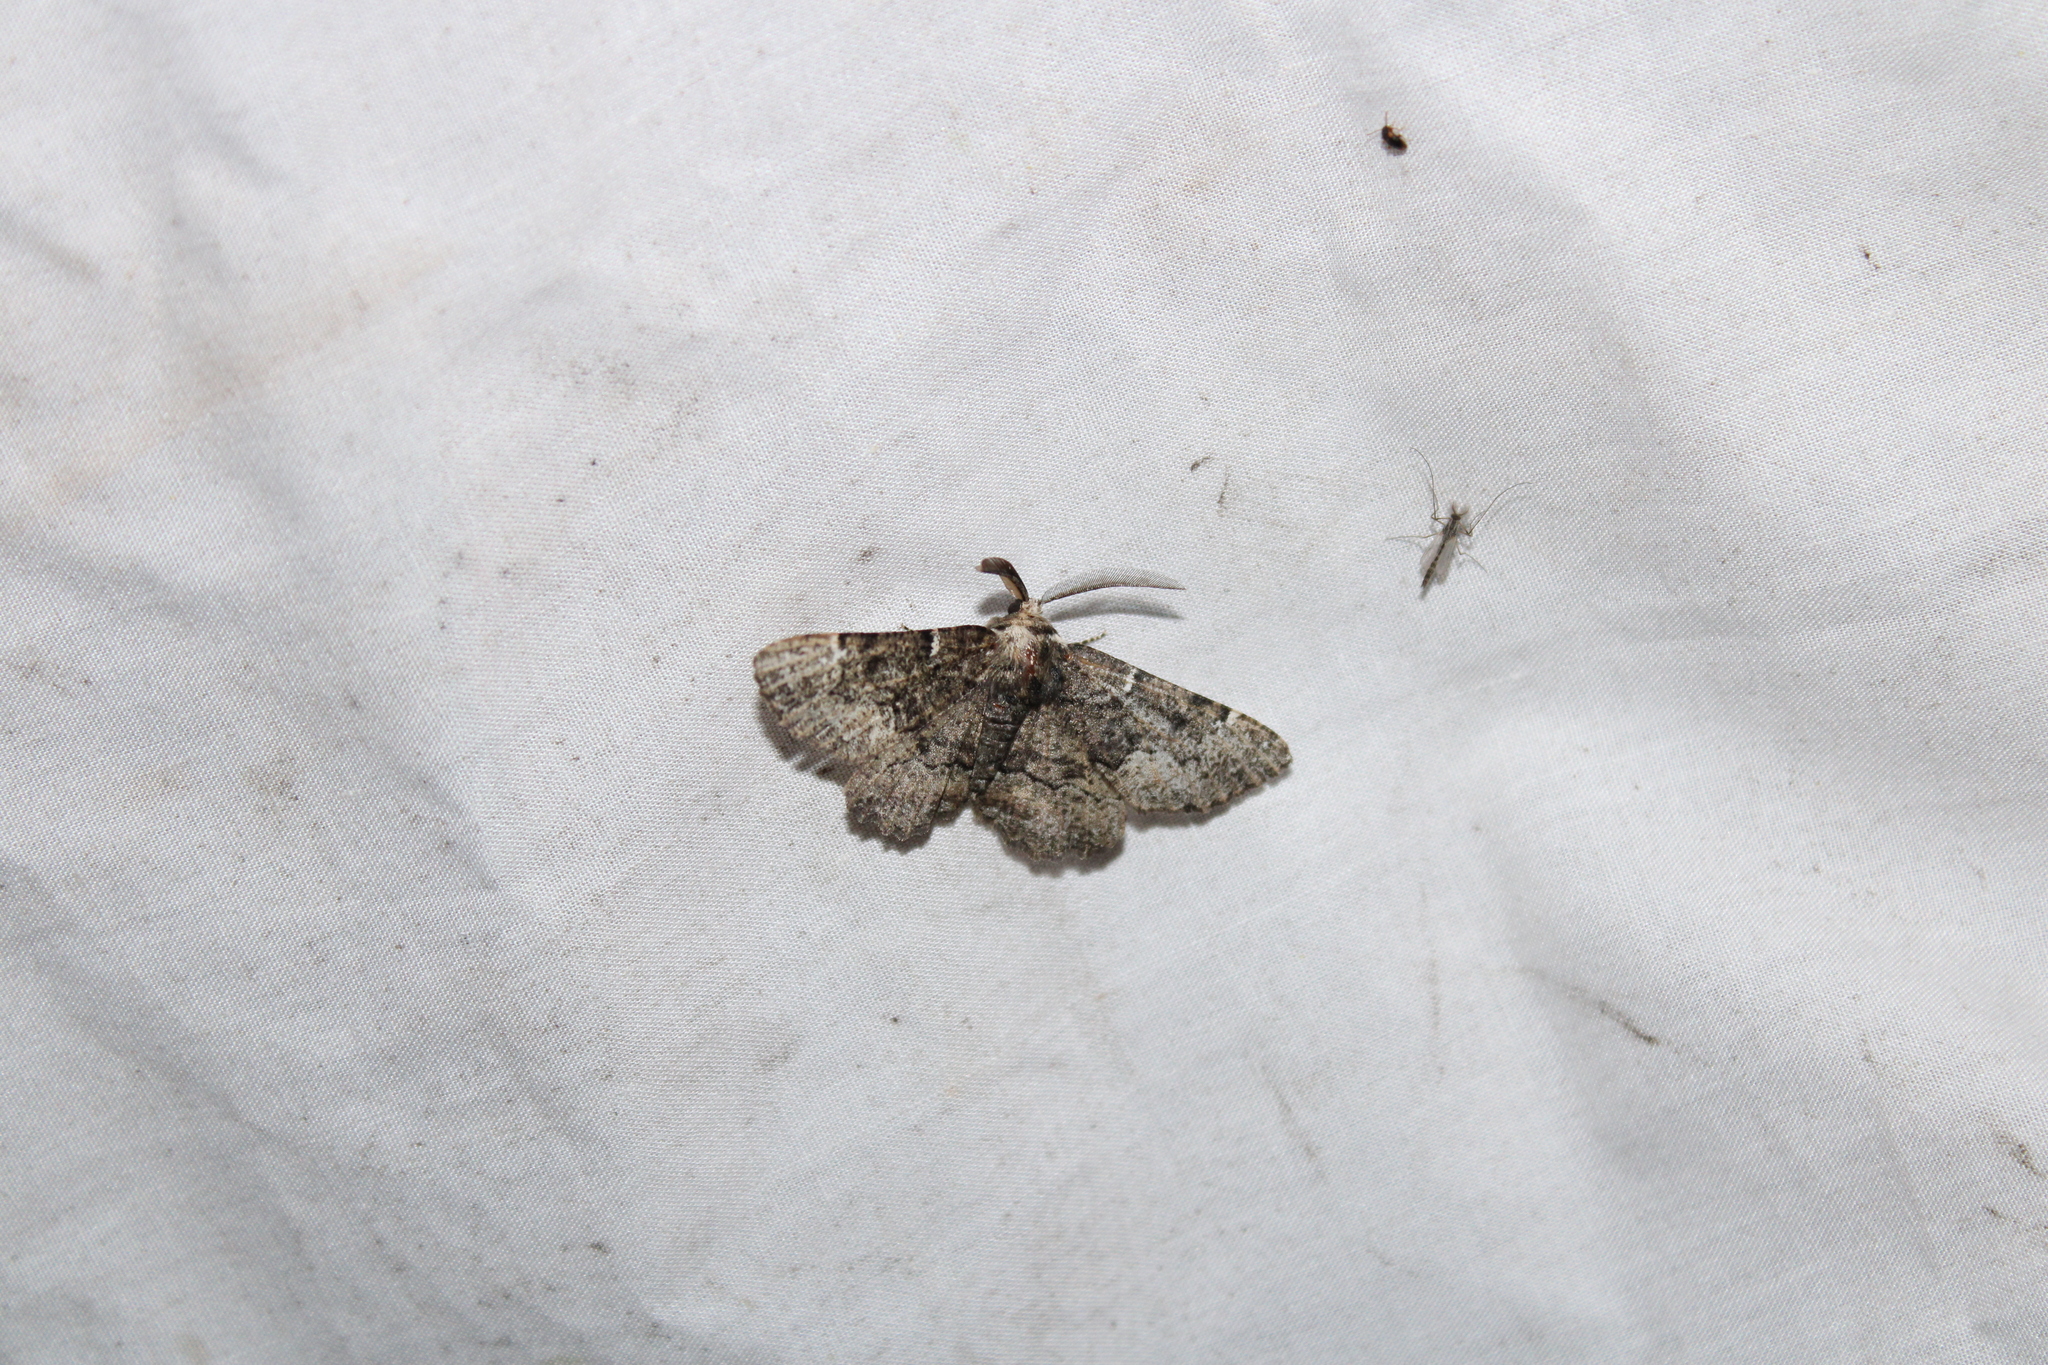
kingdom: Animalia
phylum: Arthropoda
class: Insecta
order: Lepidoptera
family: Geometridae
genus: Phaeoura
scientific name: Phaeoura quernaria
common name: Oak beauty
